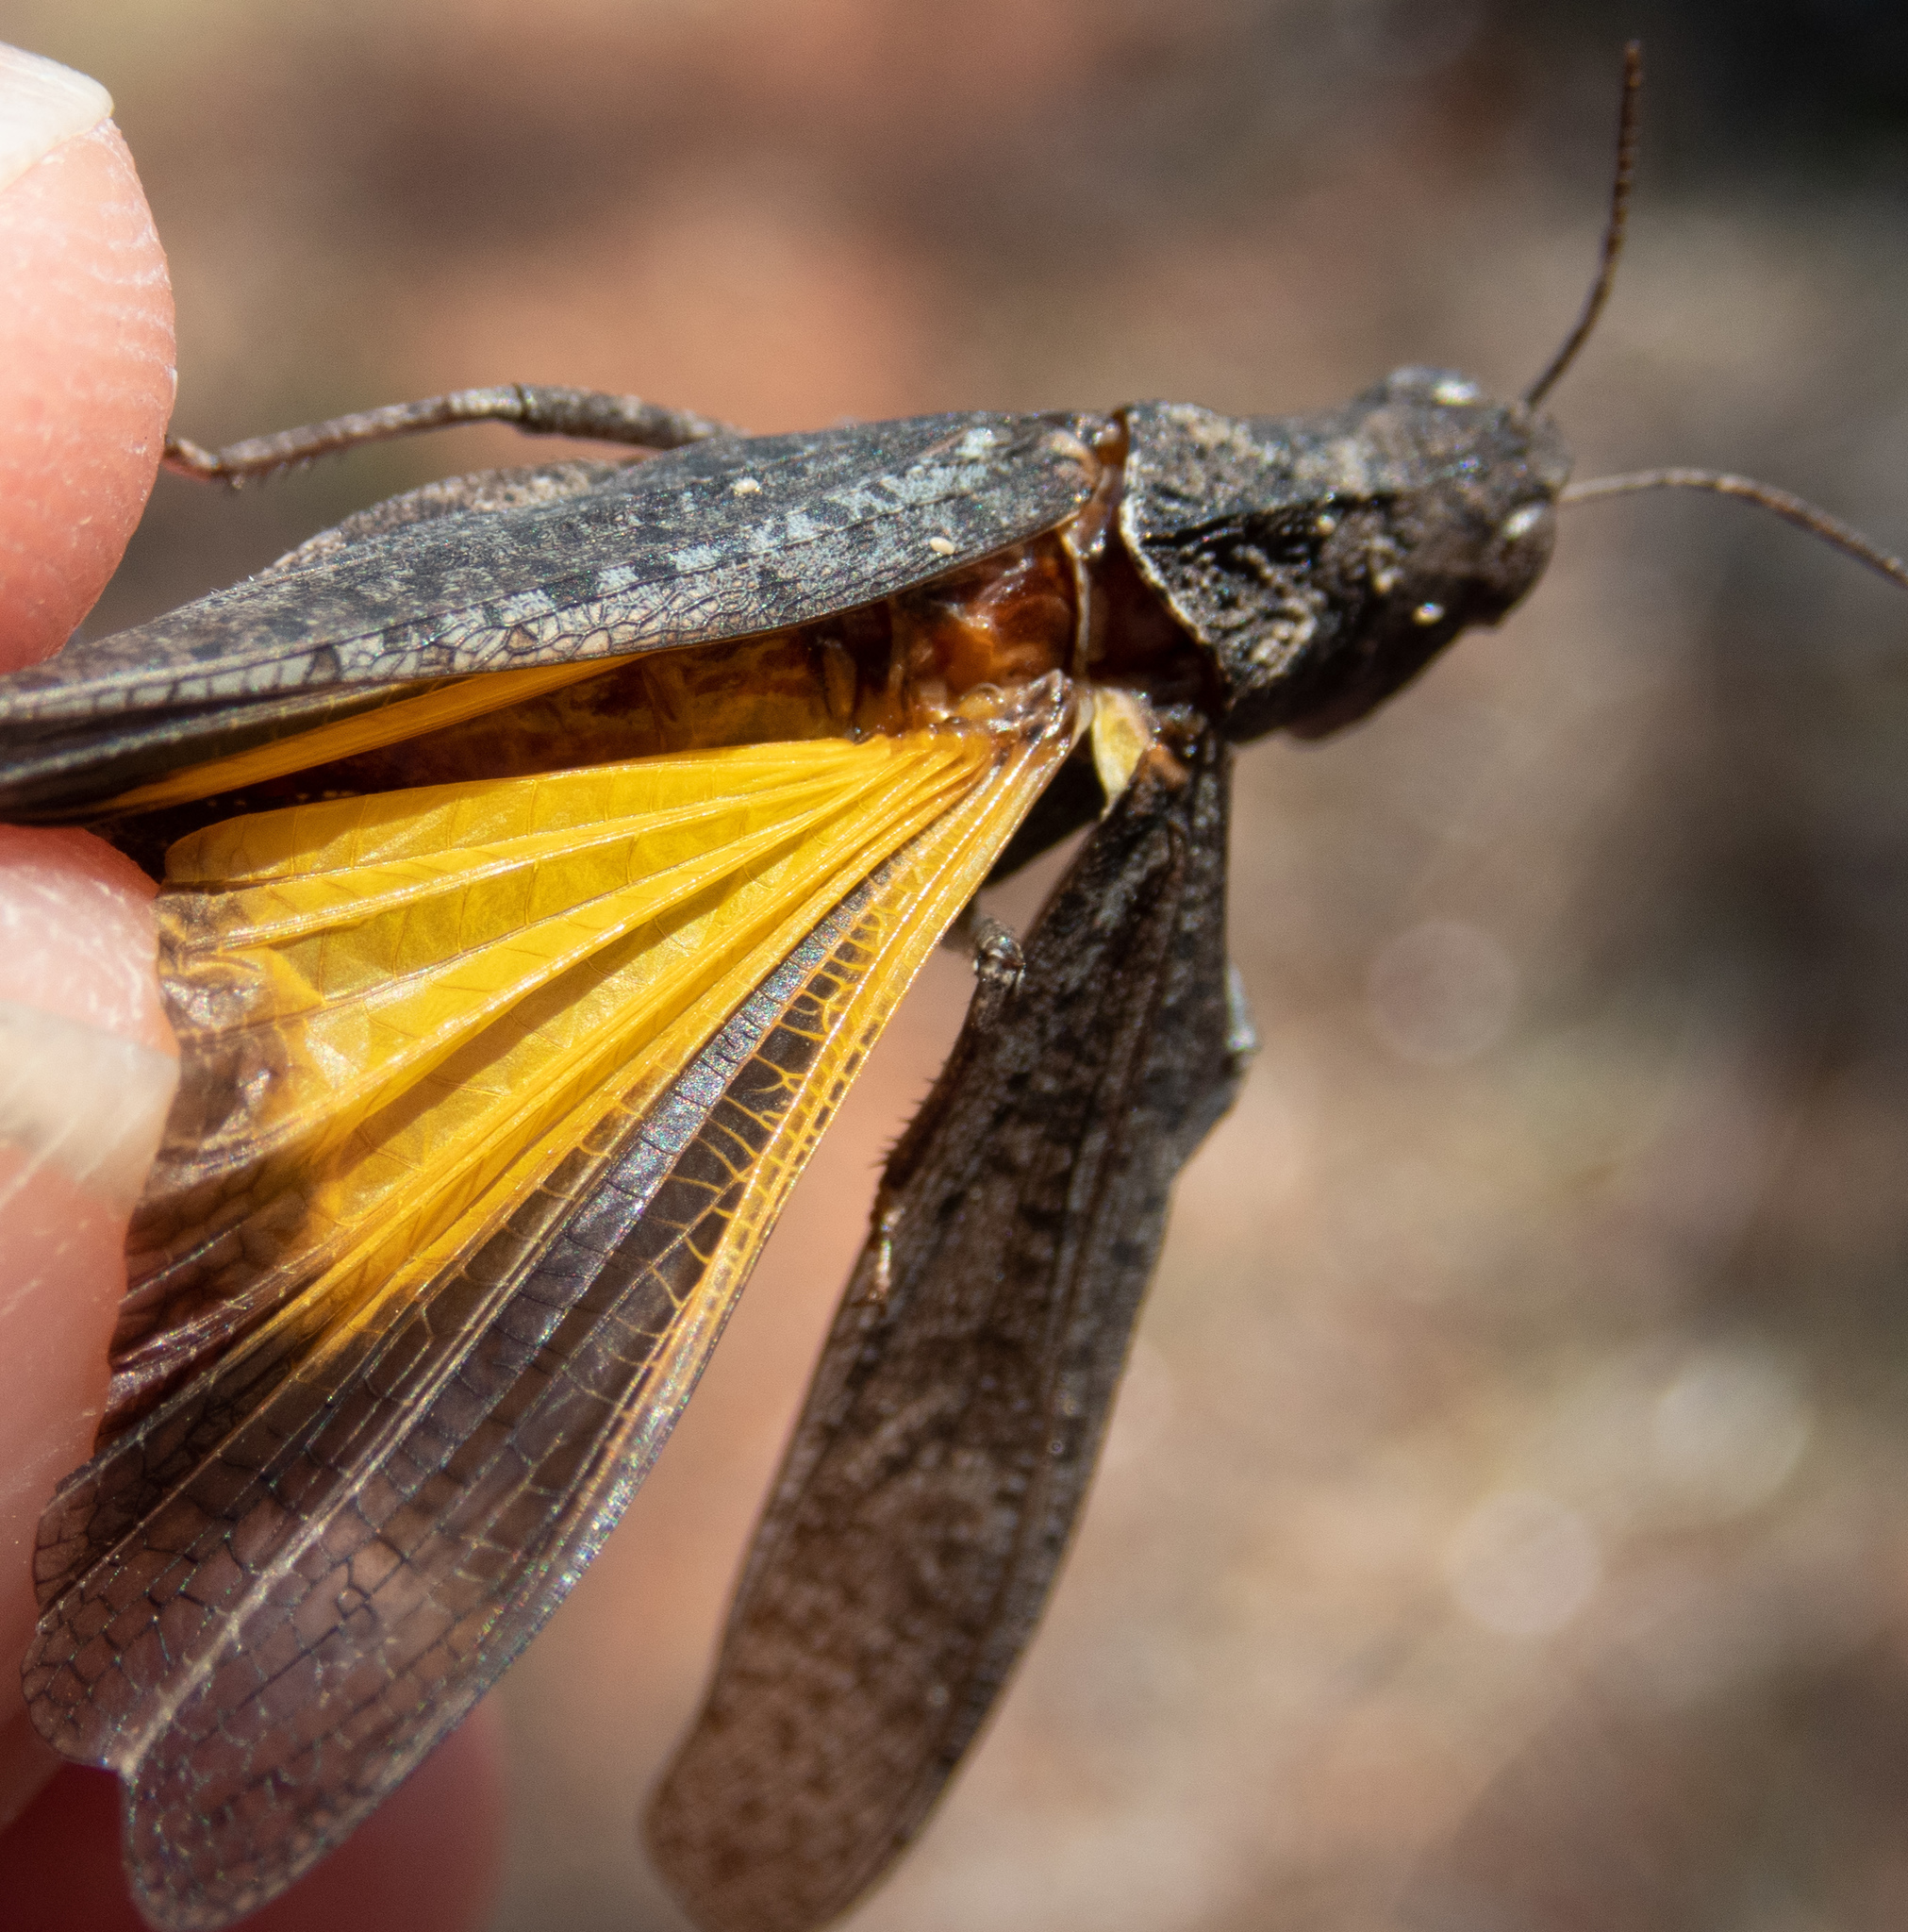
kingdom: Animalia
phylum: Arthropoda
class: Insecta
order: Orthoptera
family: Acrididae
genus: Arphia
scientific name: Arphia behrensi
